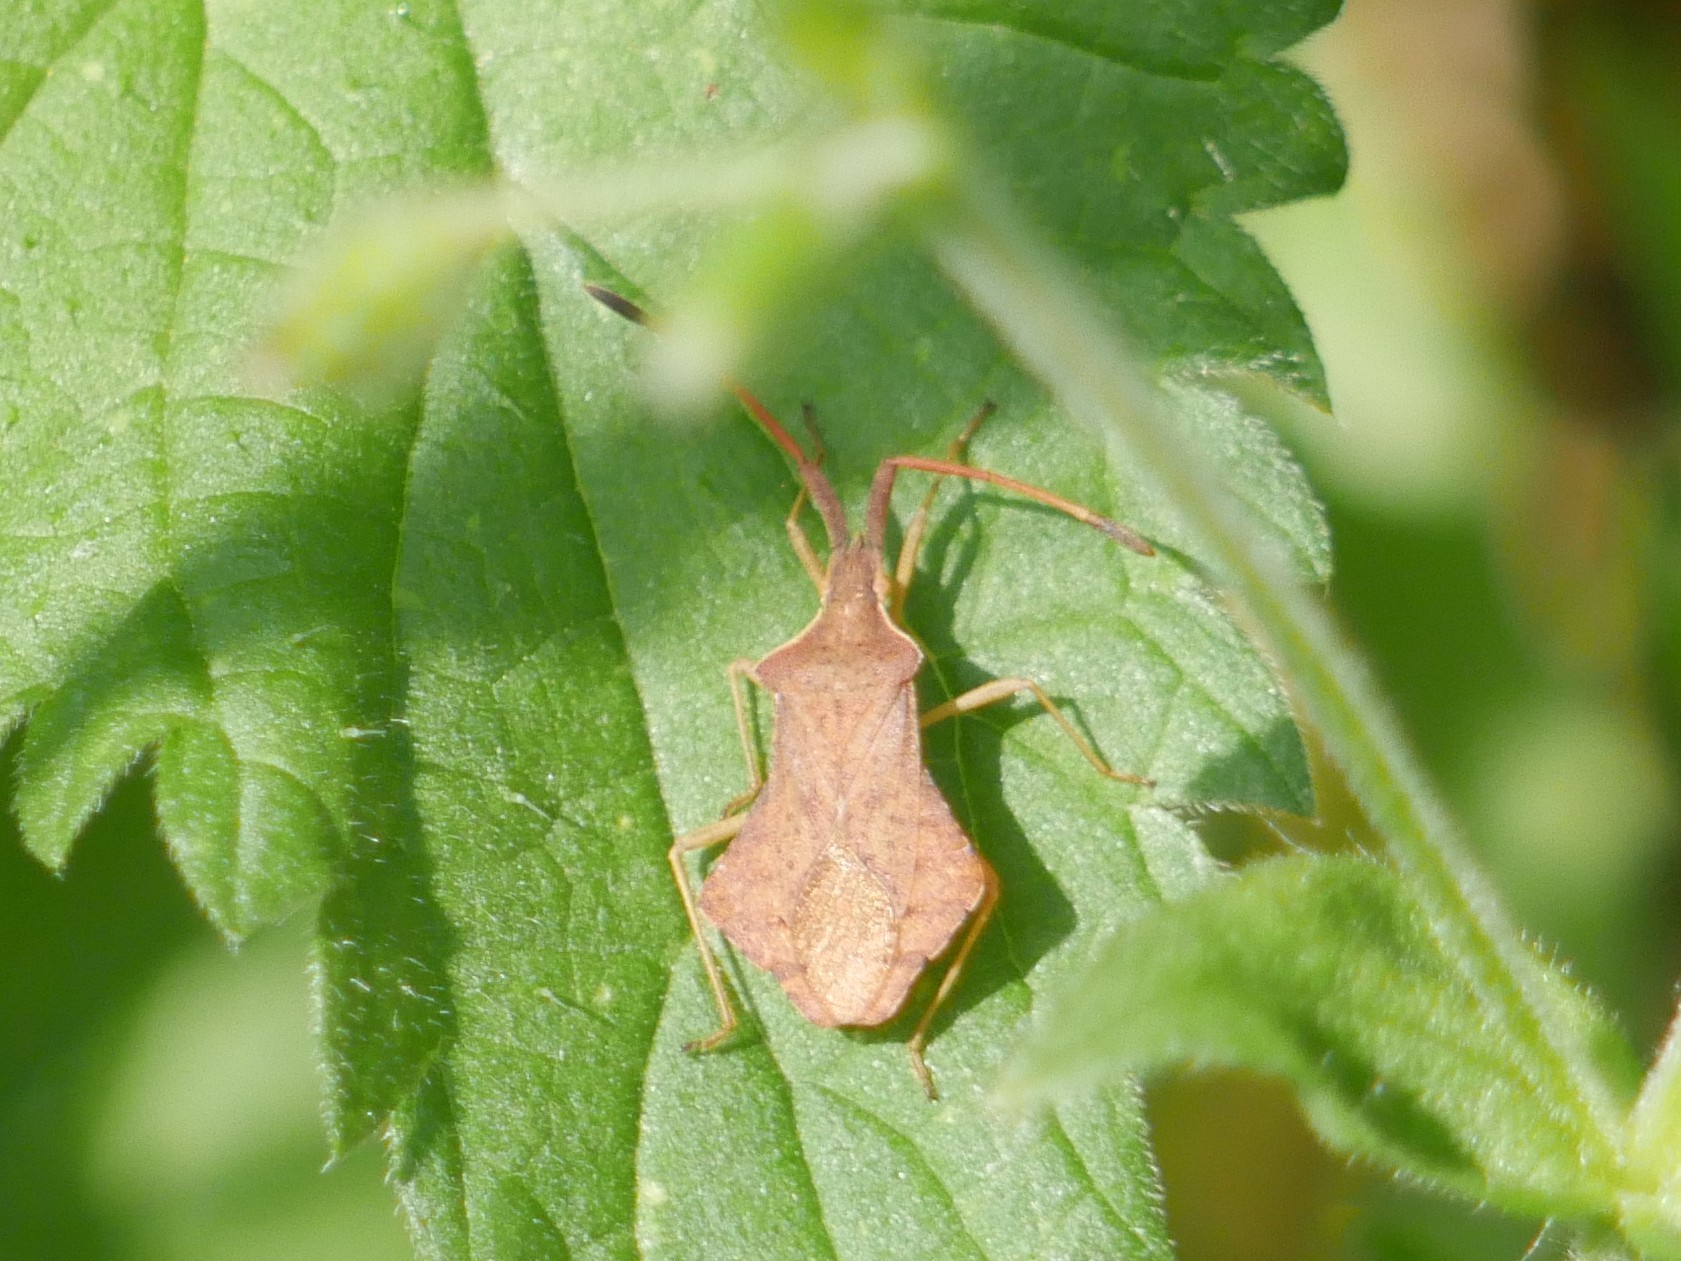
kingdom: Animalia
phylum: Arthropoda
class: Insecta
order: Hemiptera
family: Coreidae
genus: Syromastus
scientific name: Syromastus rhombeus
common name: Rhombic leatherbug
